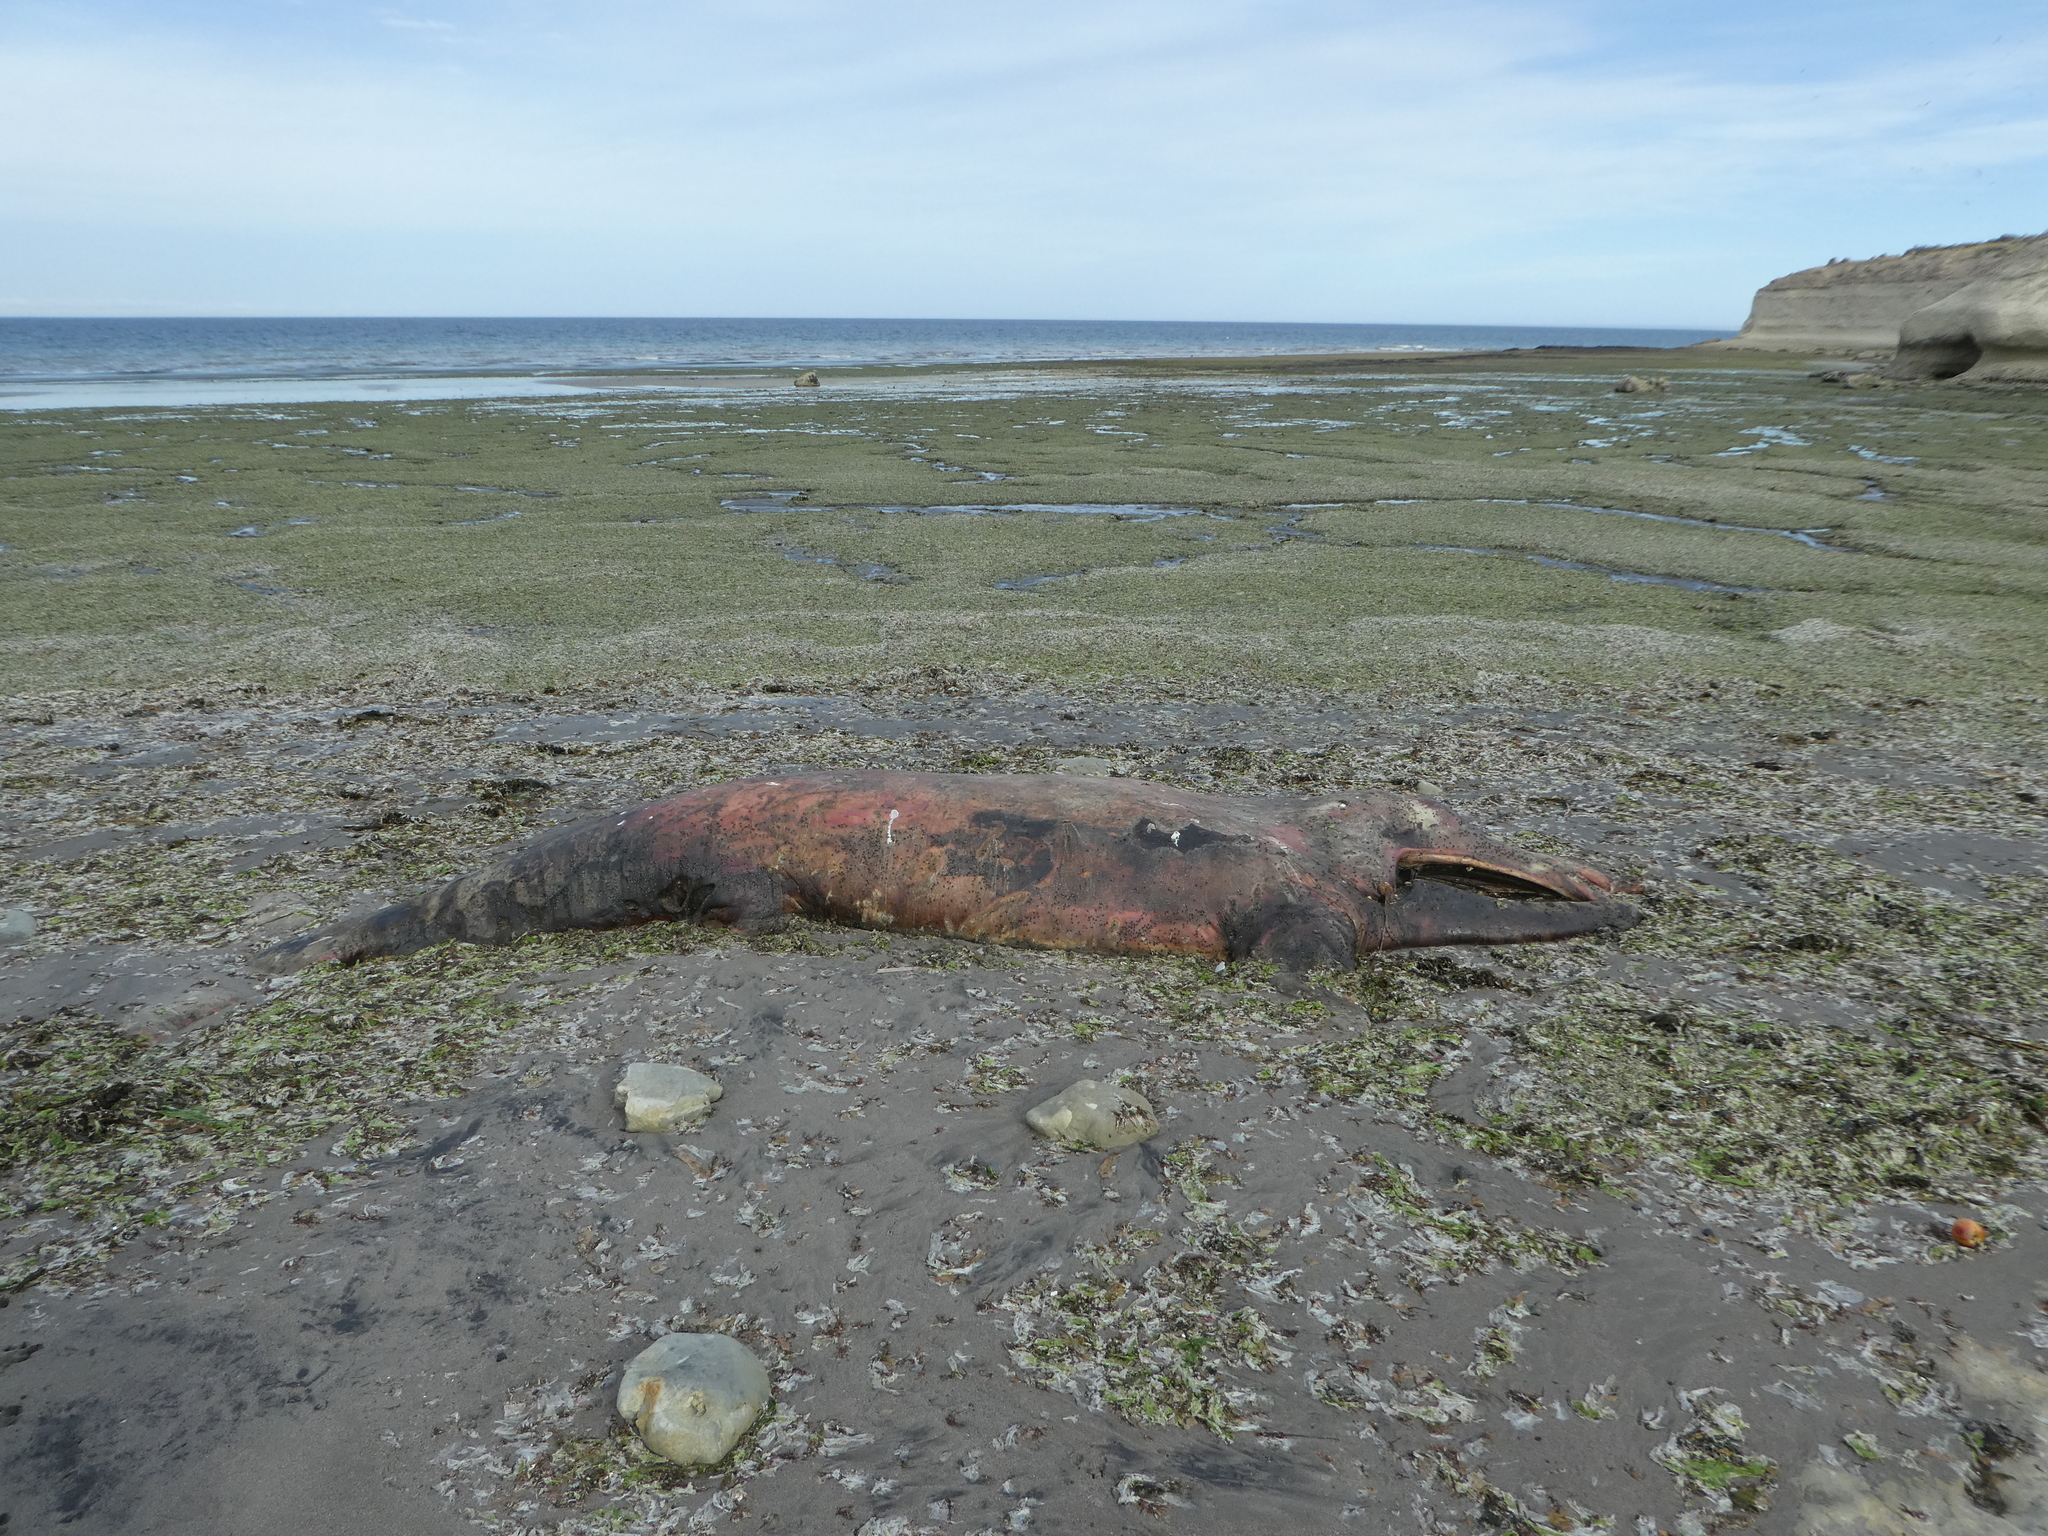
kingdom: Animalia
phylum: Chordata
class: Mammalia
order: Cetacea
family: Balaenidae
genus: Eubalaena
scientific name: Eubalaena australis
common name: Southern right whale
